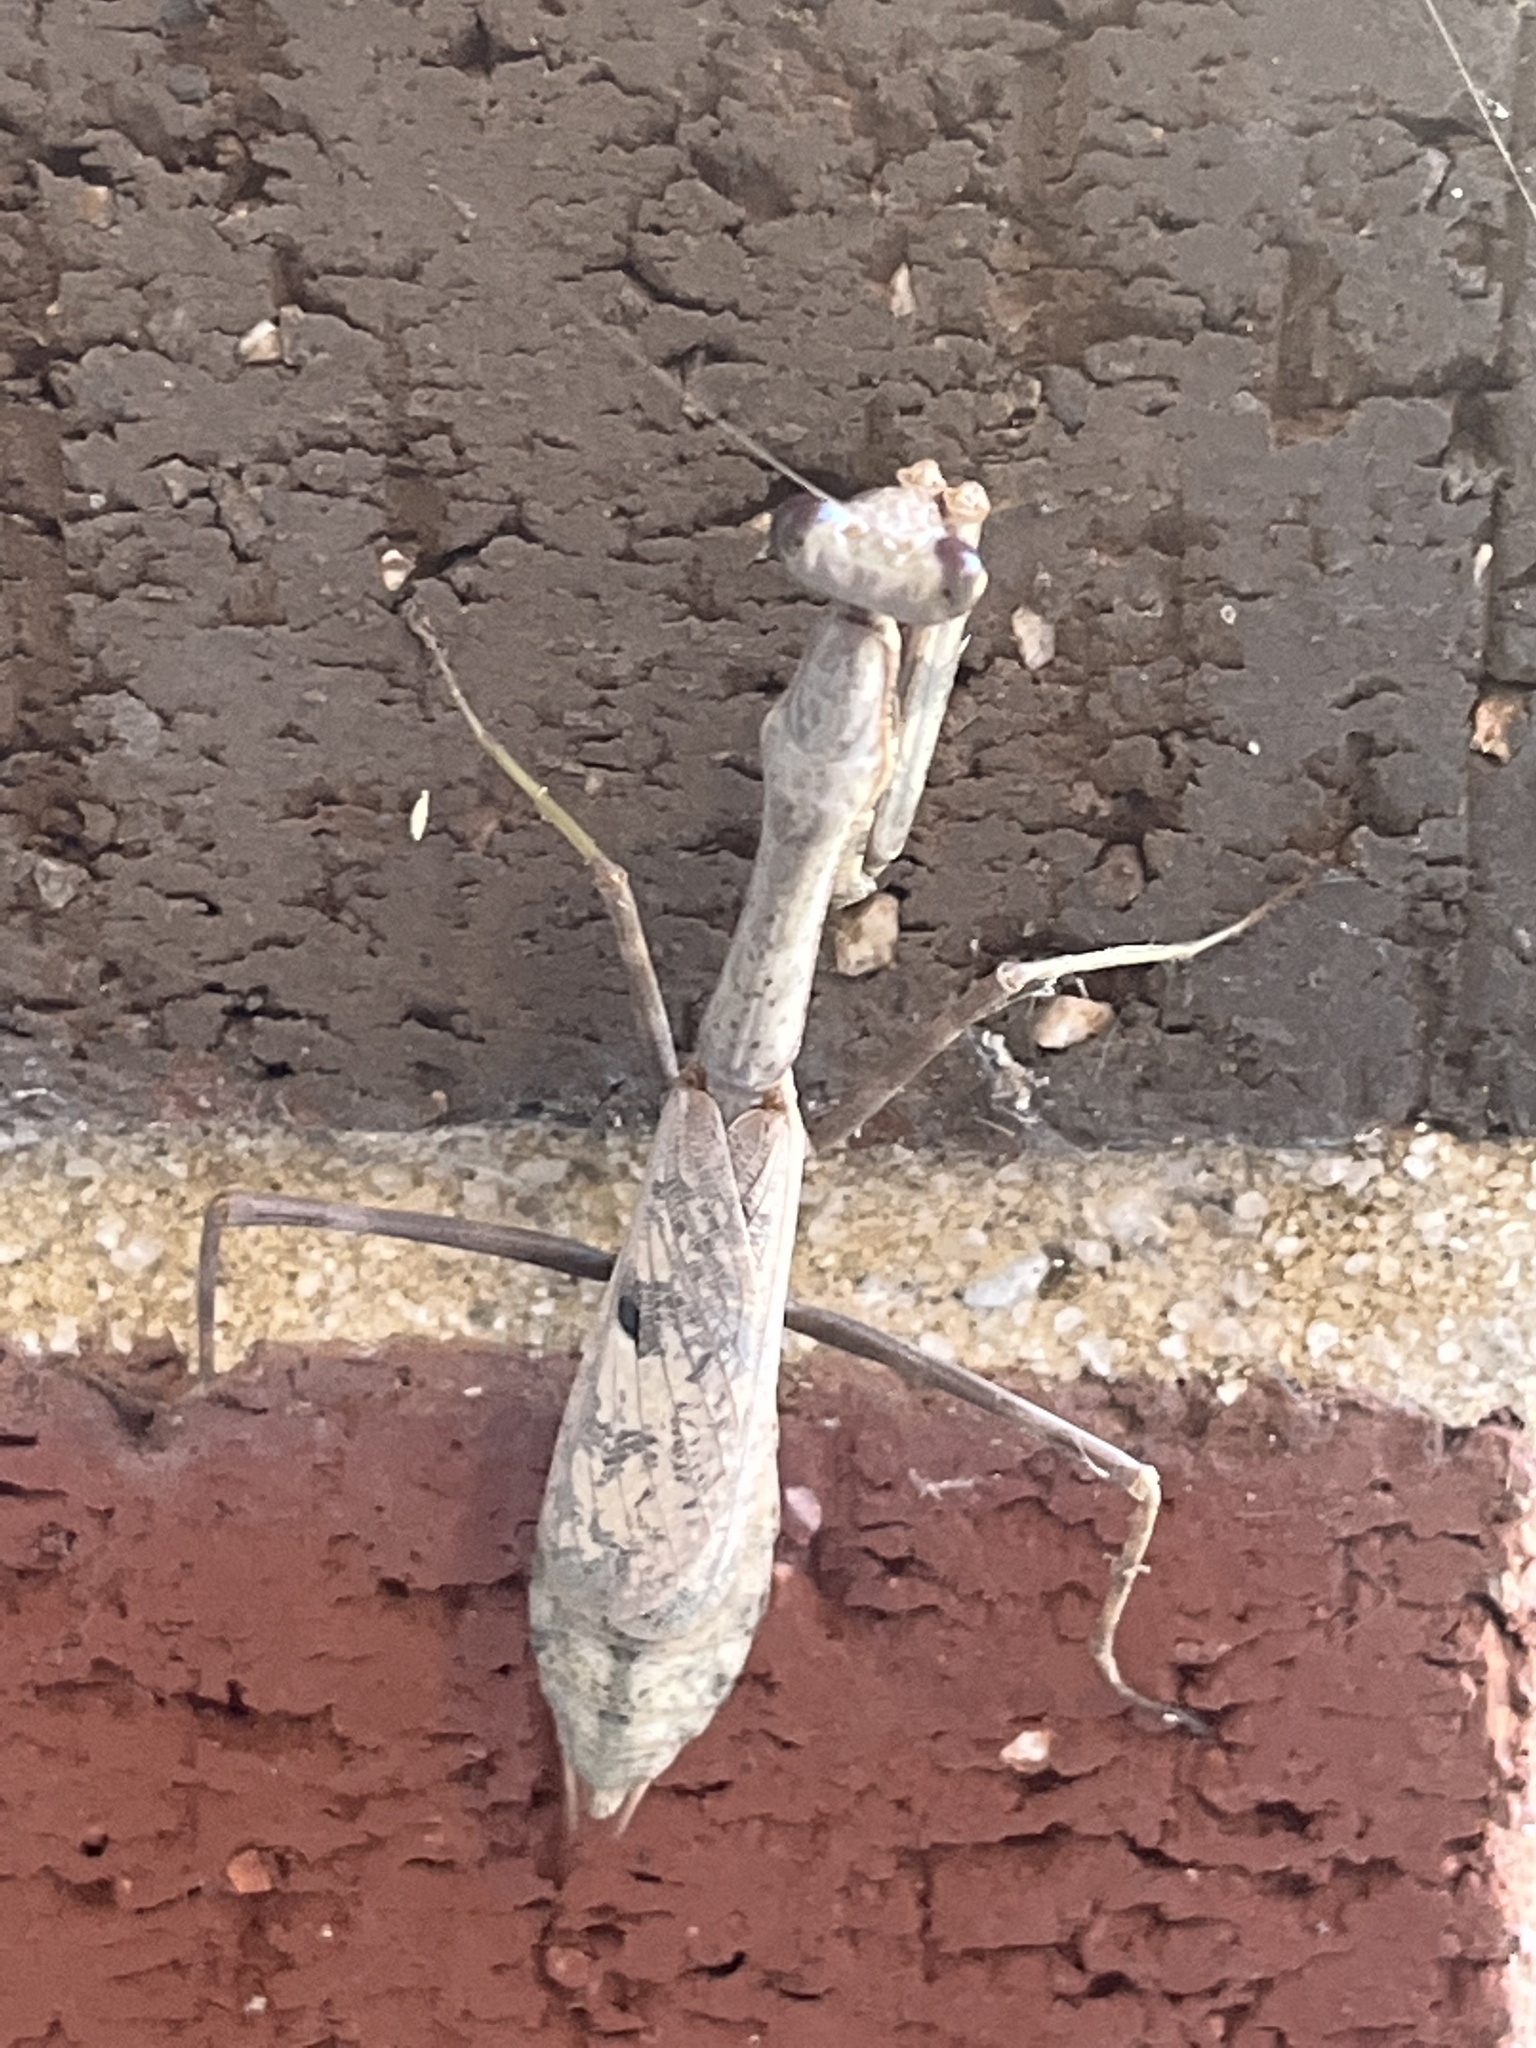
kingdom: Animalia
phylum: Arthropoda
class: Insecta
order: Mantodea
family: Mantidae
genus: Stagmomantis
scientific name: Stagmomantis carolina
